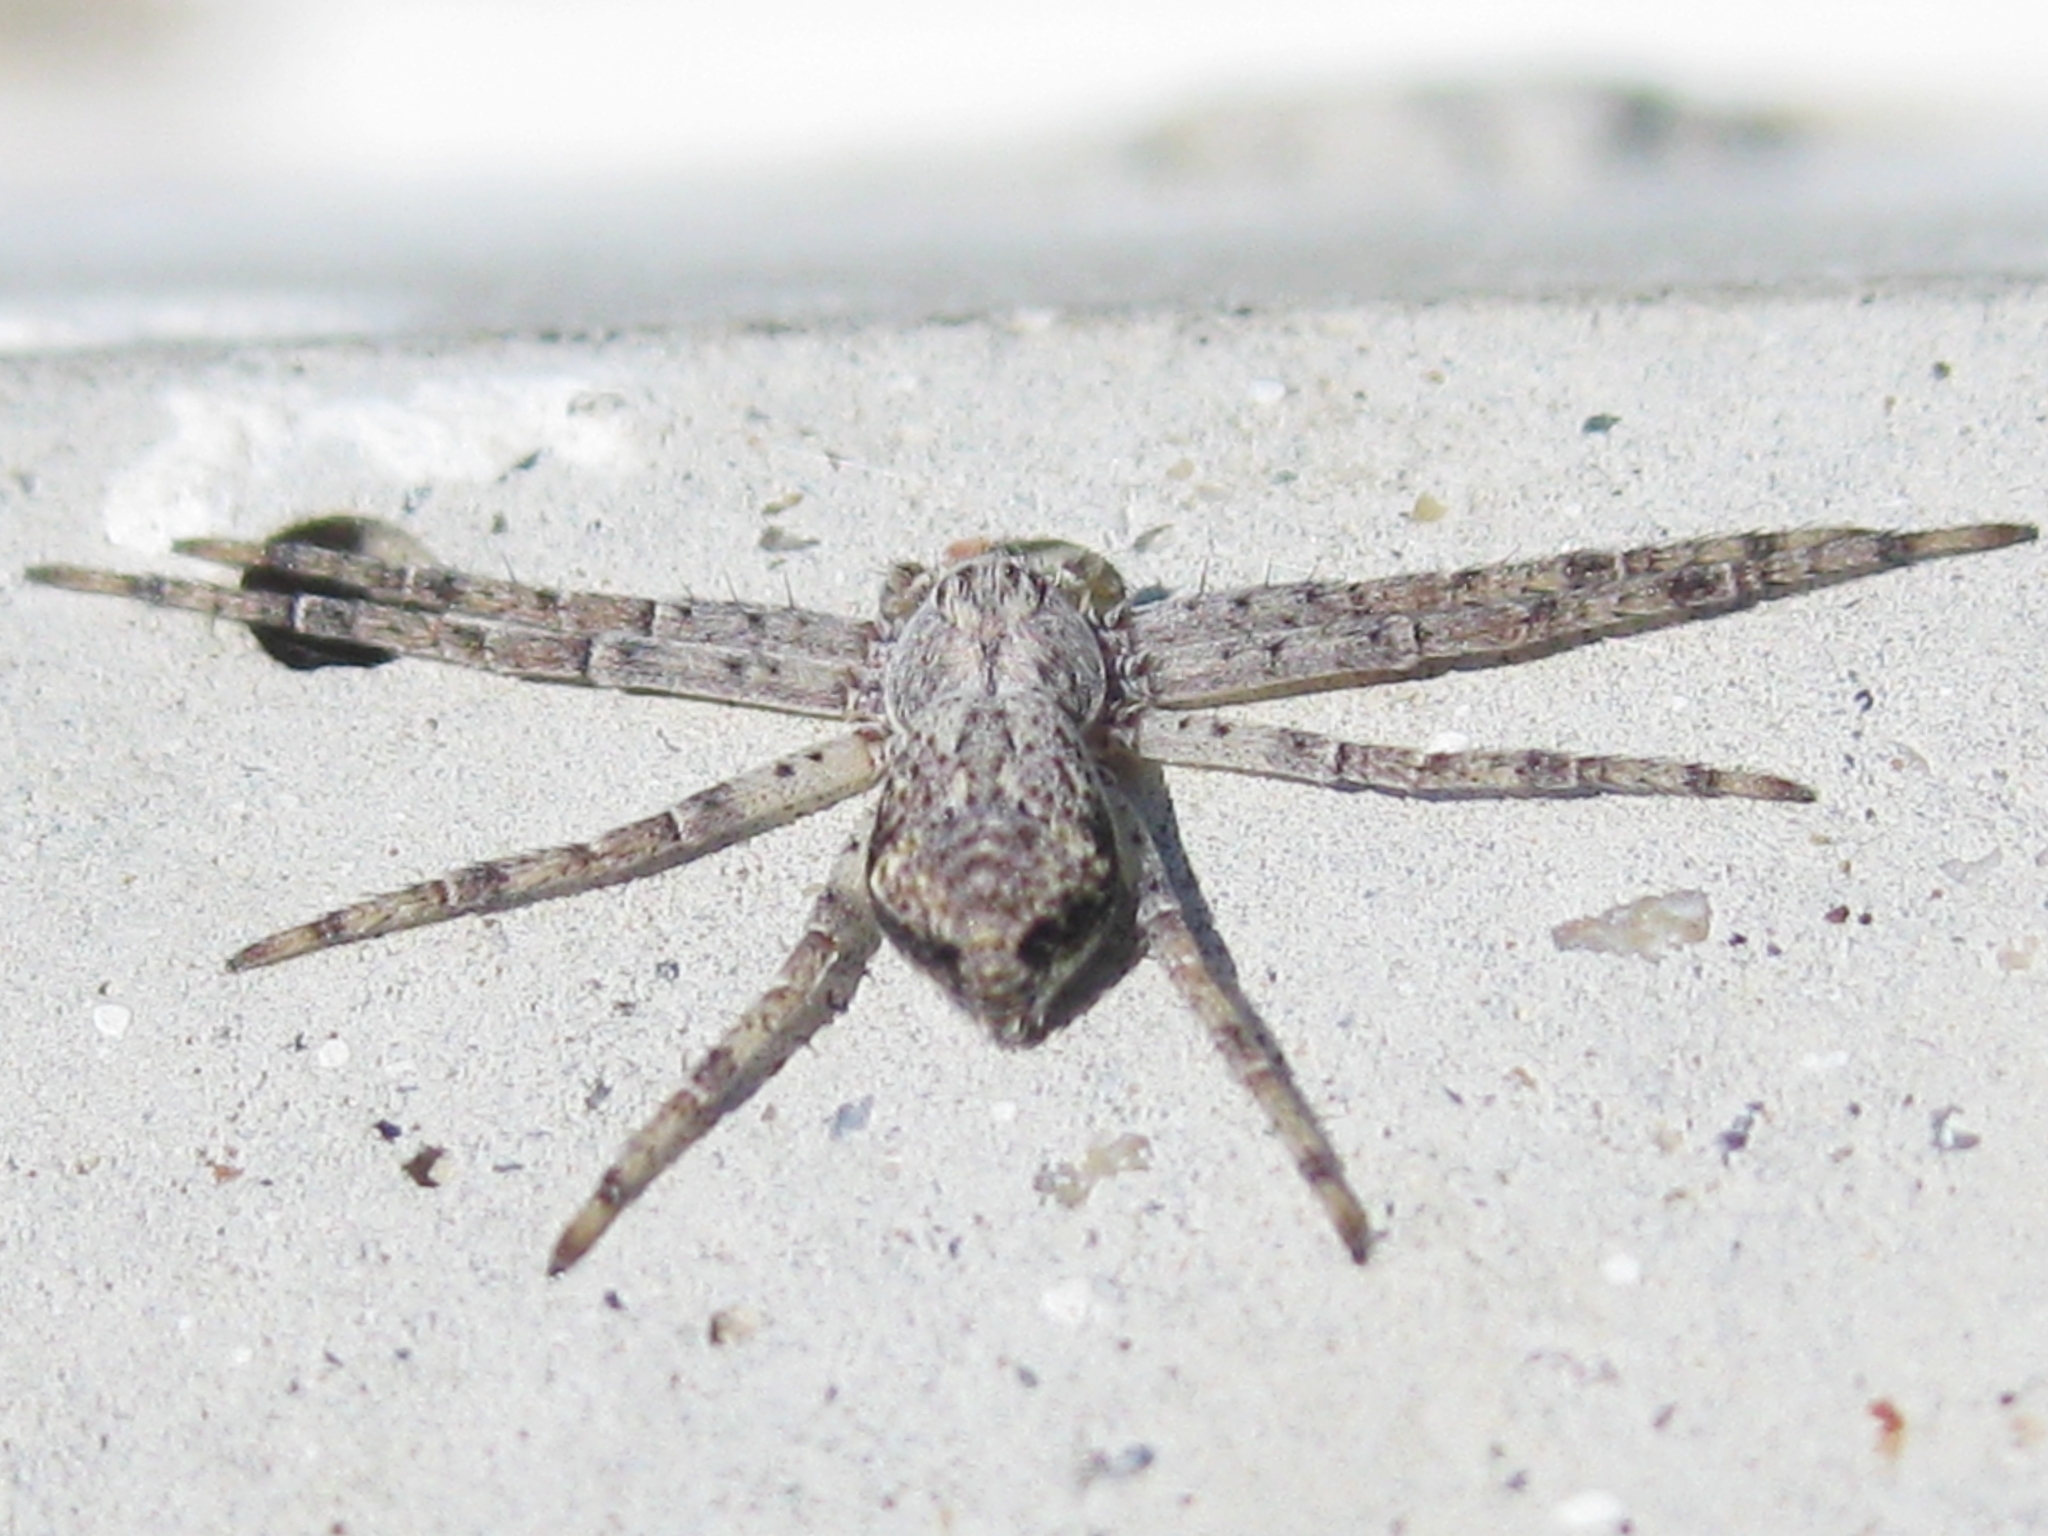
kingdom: Animalia
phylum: Arthropoda
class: Arachnida
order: Araneae
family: Philodromidae
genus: Rhysodromus
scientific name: Rhysodromus
